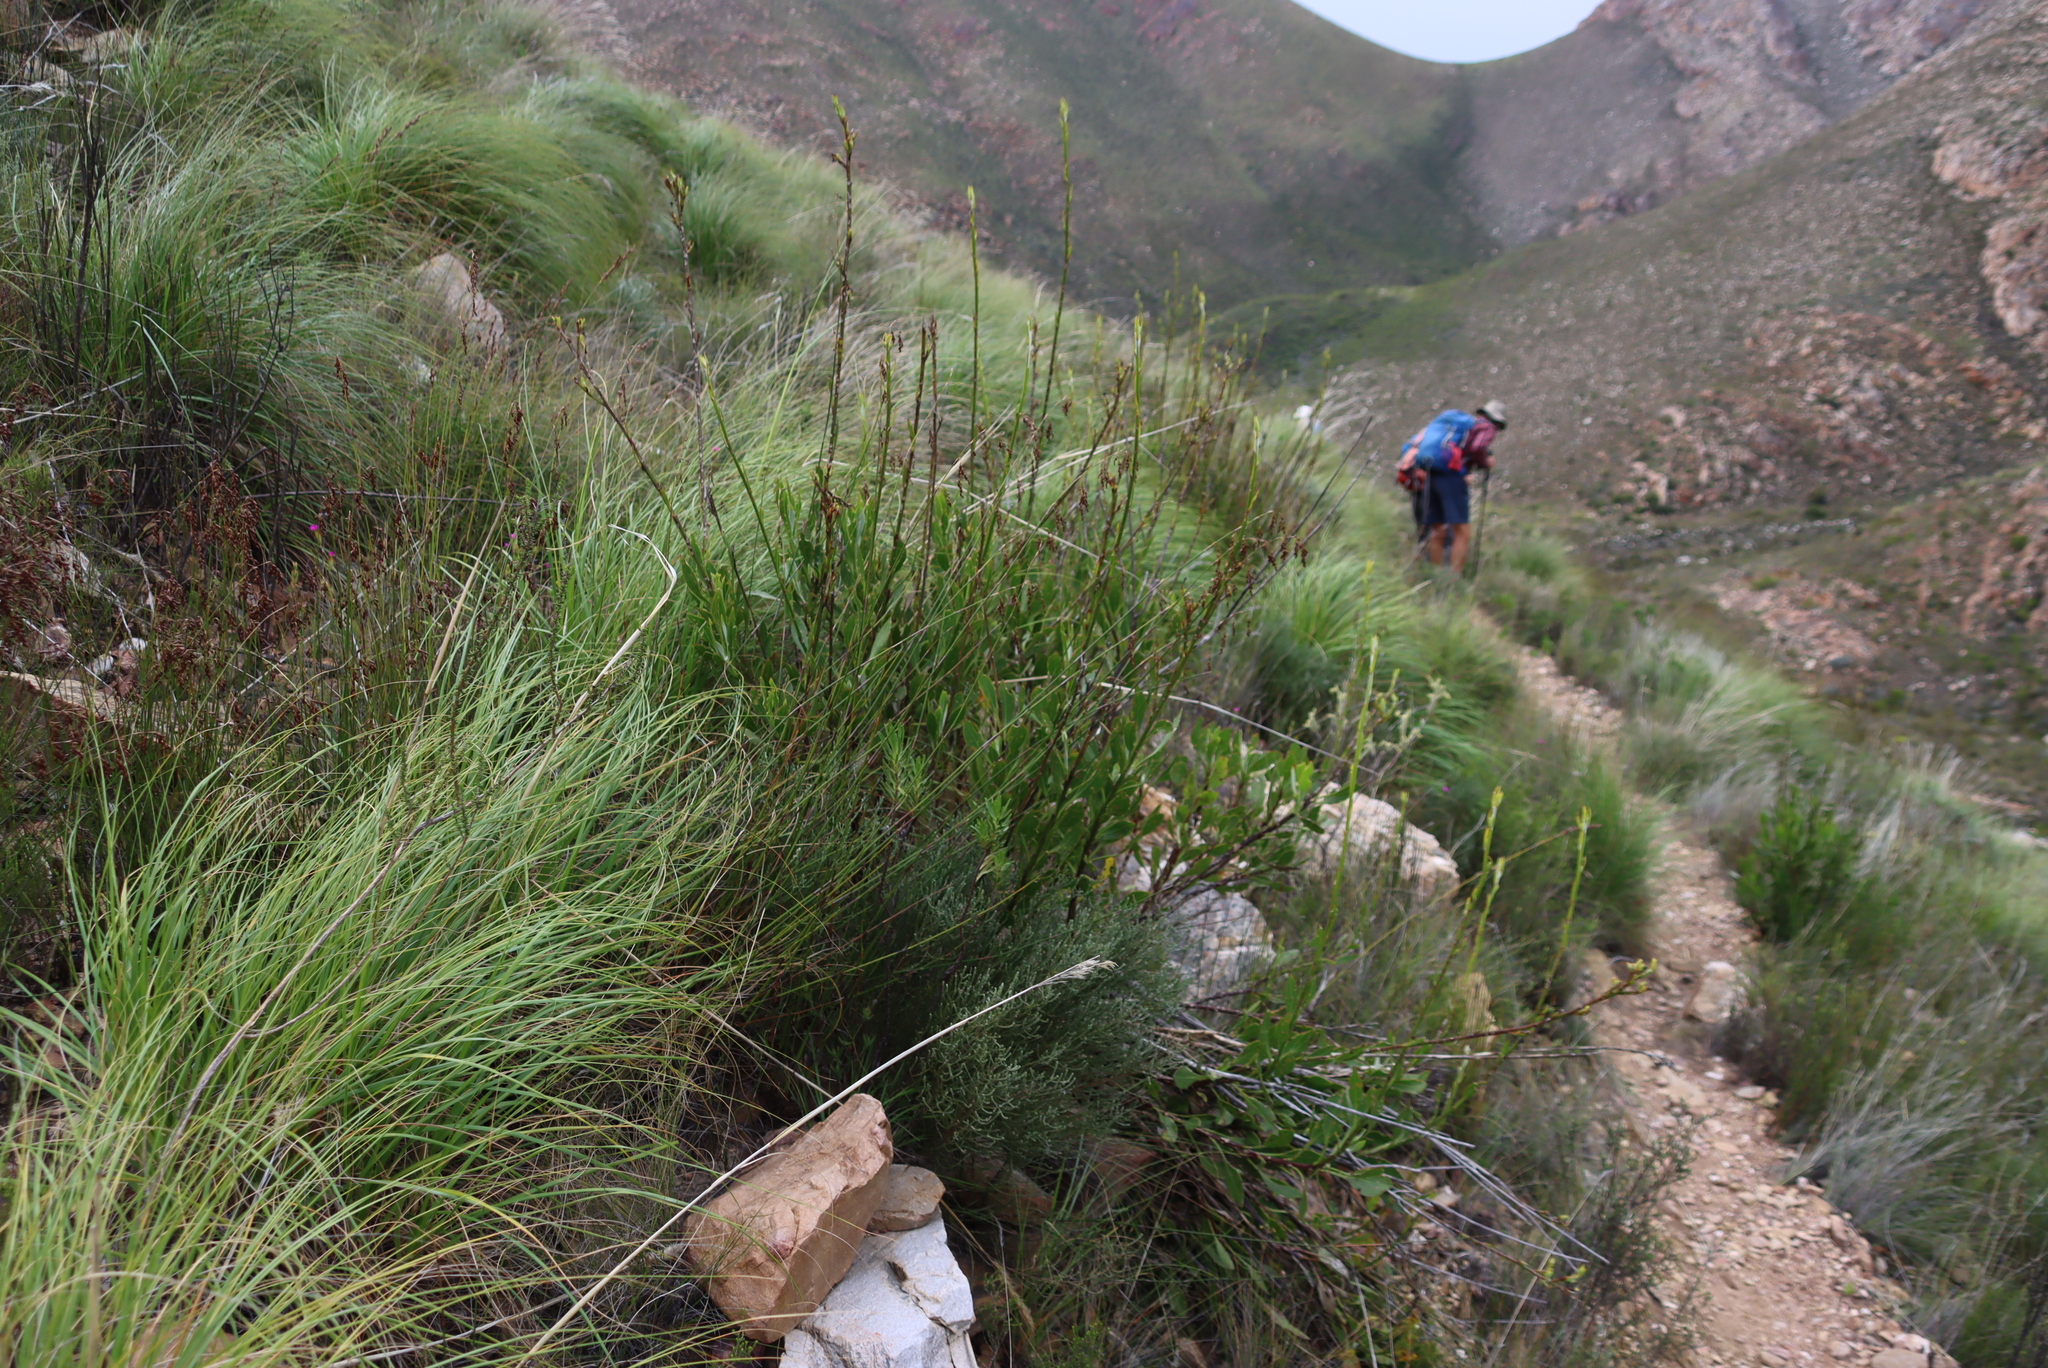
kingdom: Plantae
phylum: Tracheophyta
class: Magnoliopsida
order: Asterales
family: Asteraceae
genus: Osteospermum
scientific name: Osteospermum junceum
